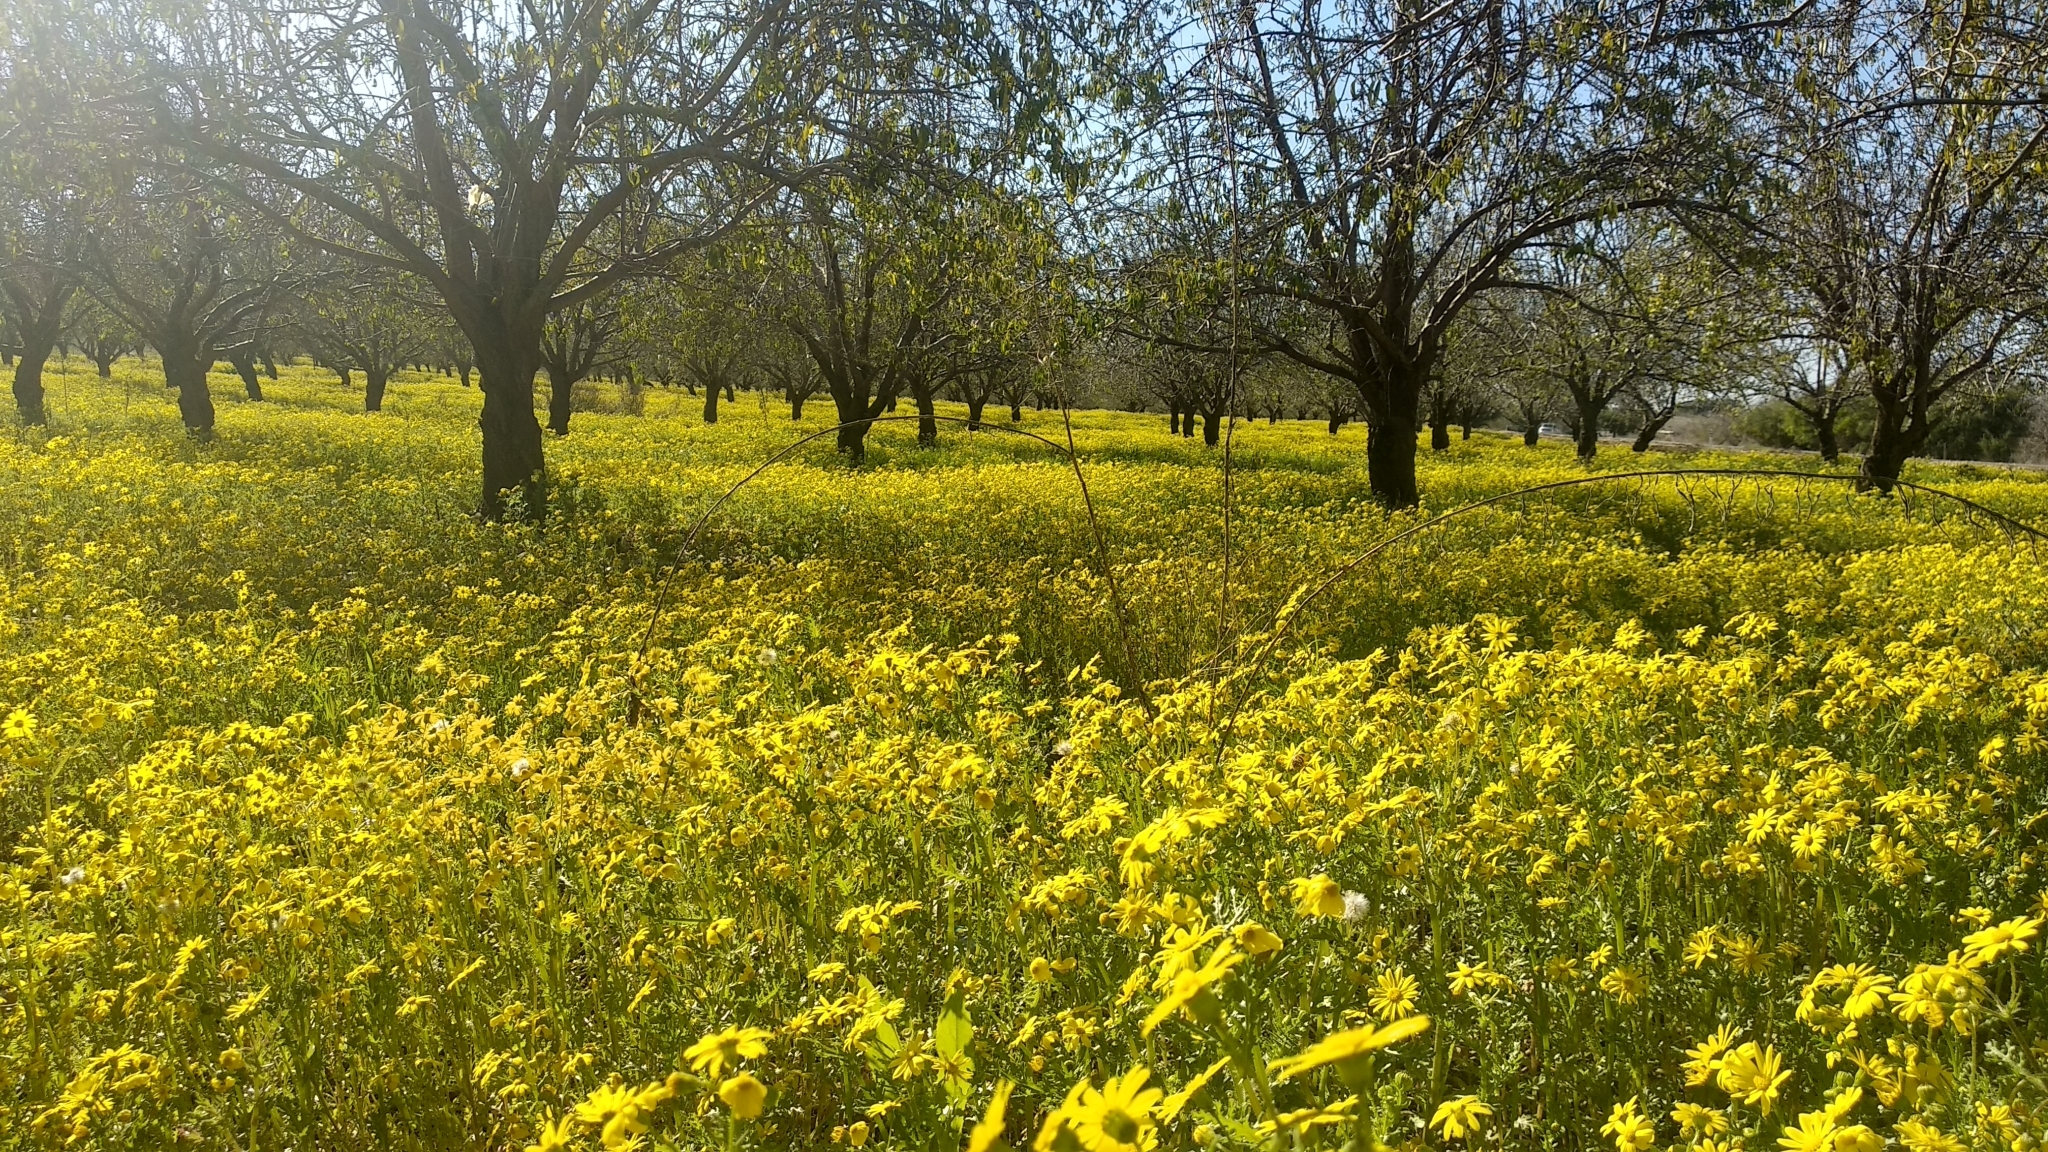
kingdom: Plantae
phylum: Tracheophyta
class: Magnoliopsida
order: Asterales
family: Asteraceae
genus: Senecio
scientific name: Senecio vernalis
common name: Eastern groundsel
